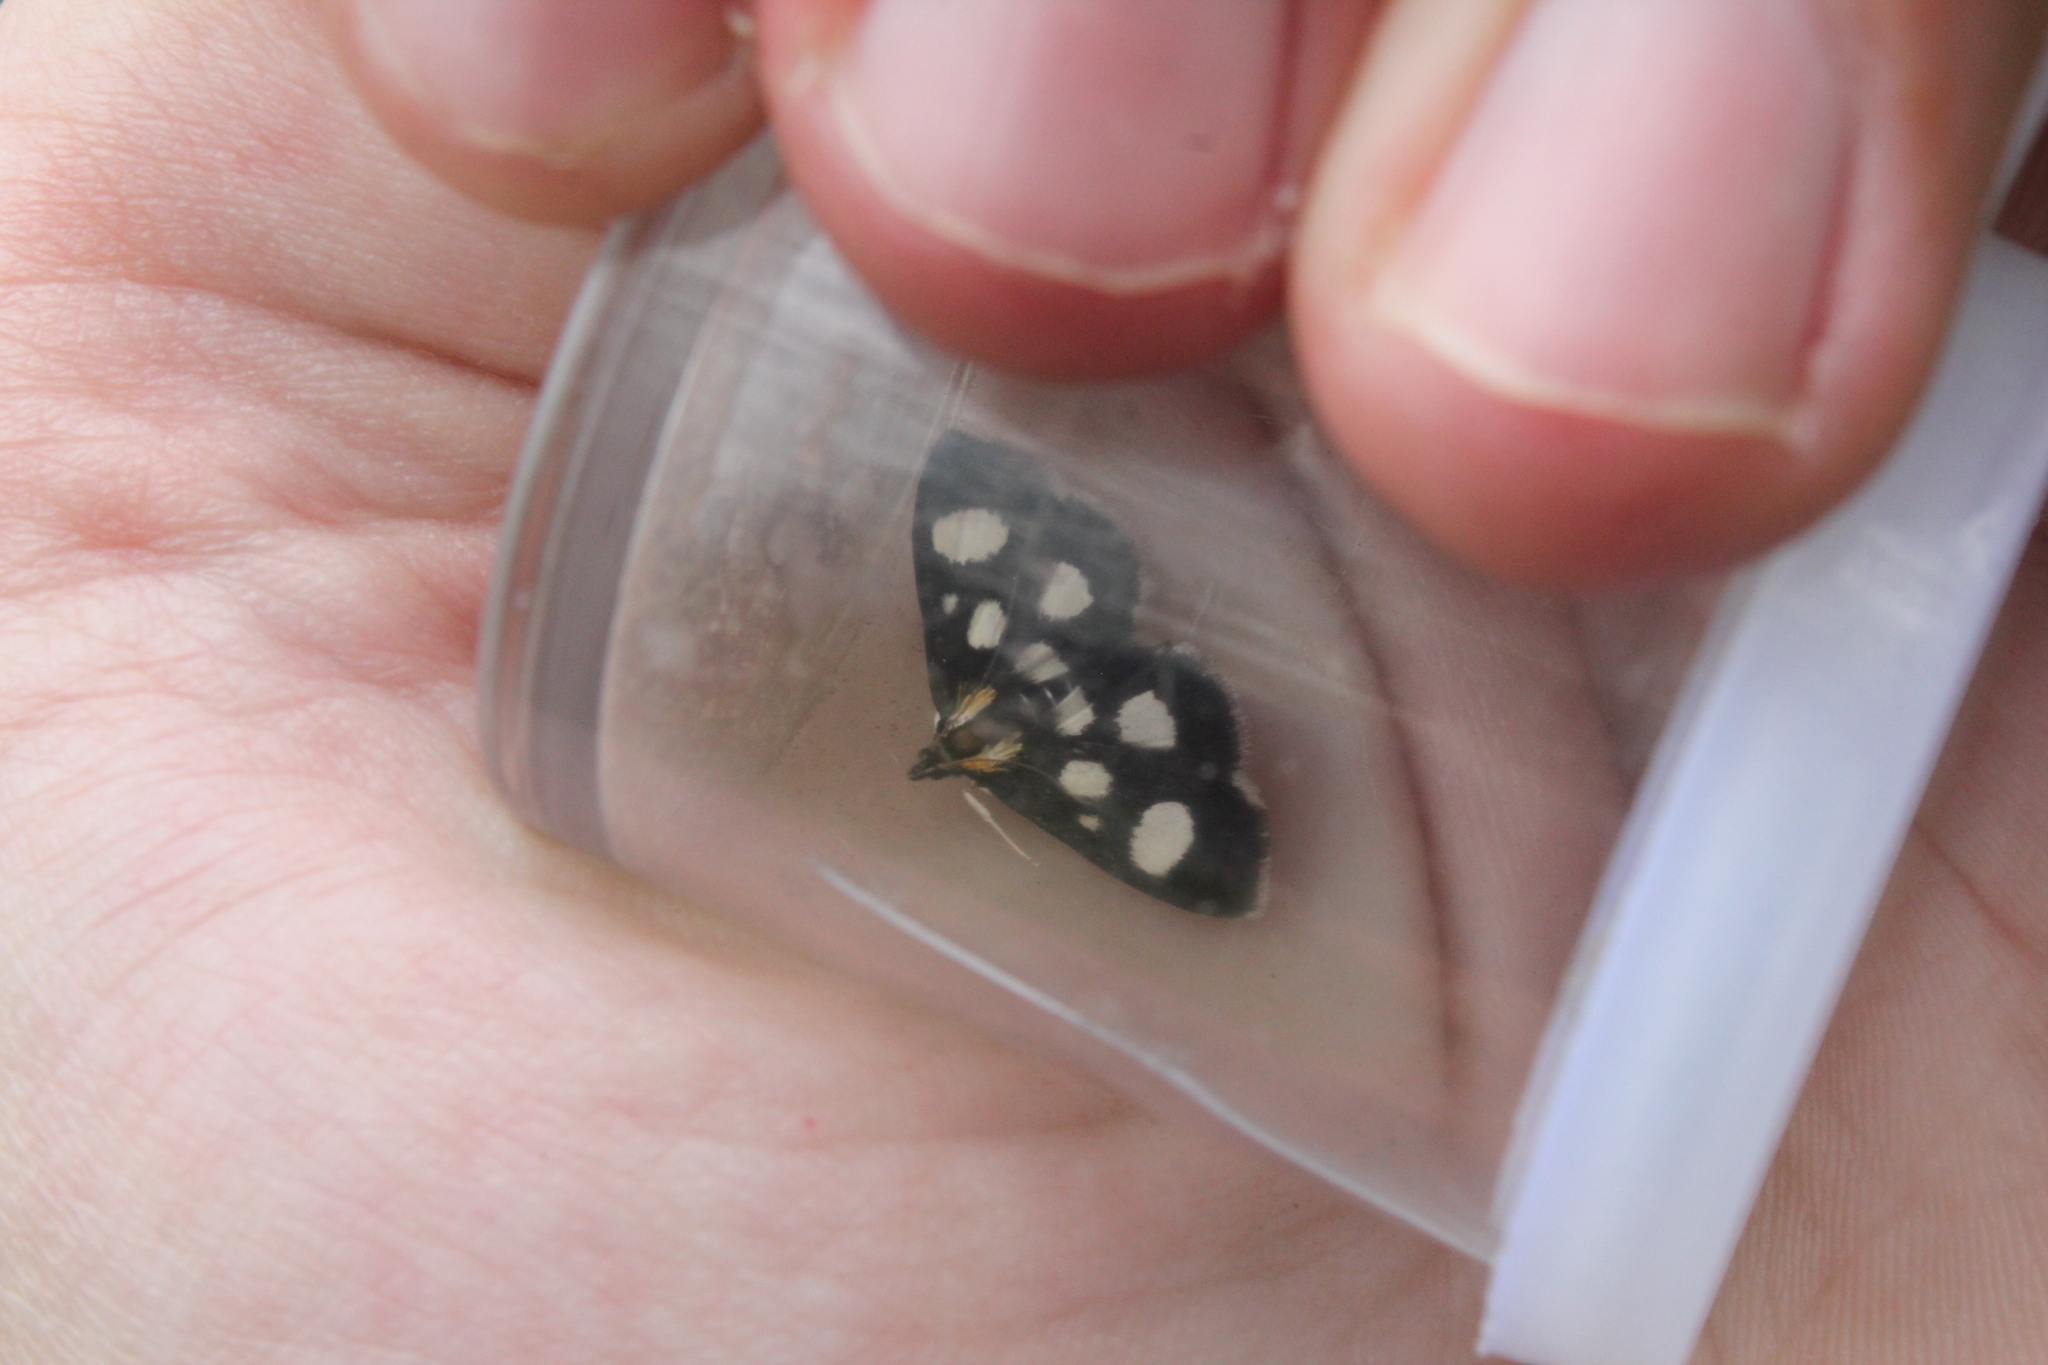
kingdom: Animalia
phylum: Arthropoda
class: Insecta
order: Lepidoptera
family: Crambidae
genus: Anania
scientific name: Anania funebris
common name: White-spotted sable moth
